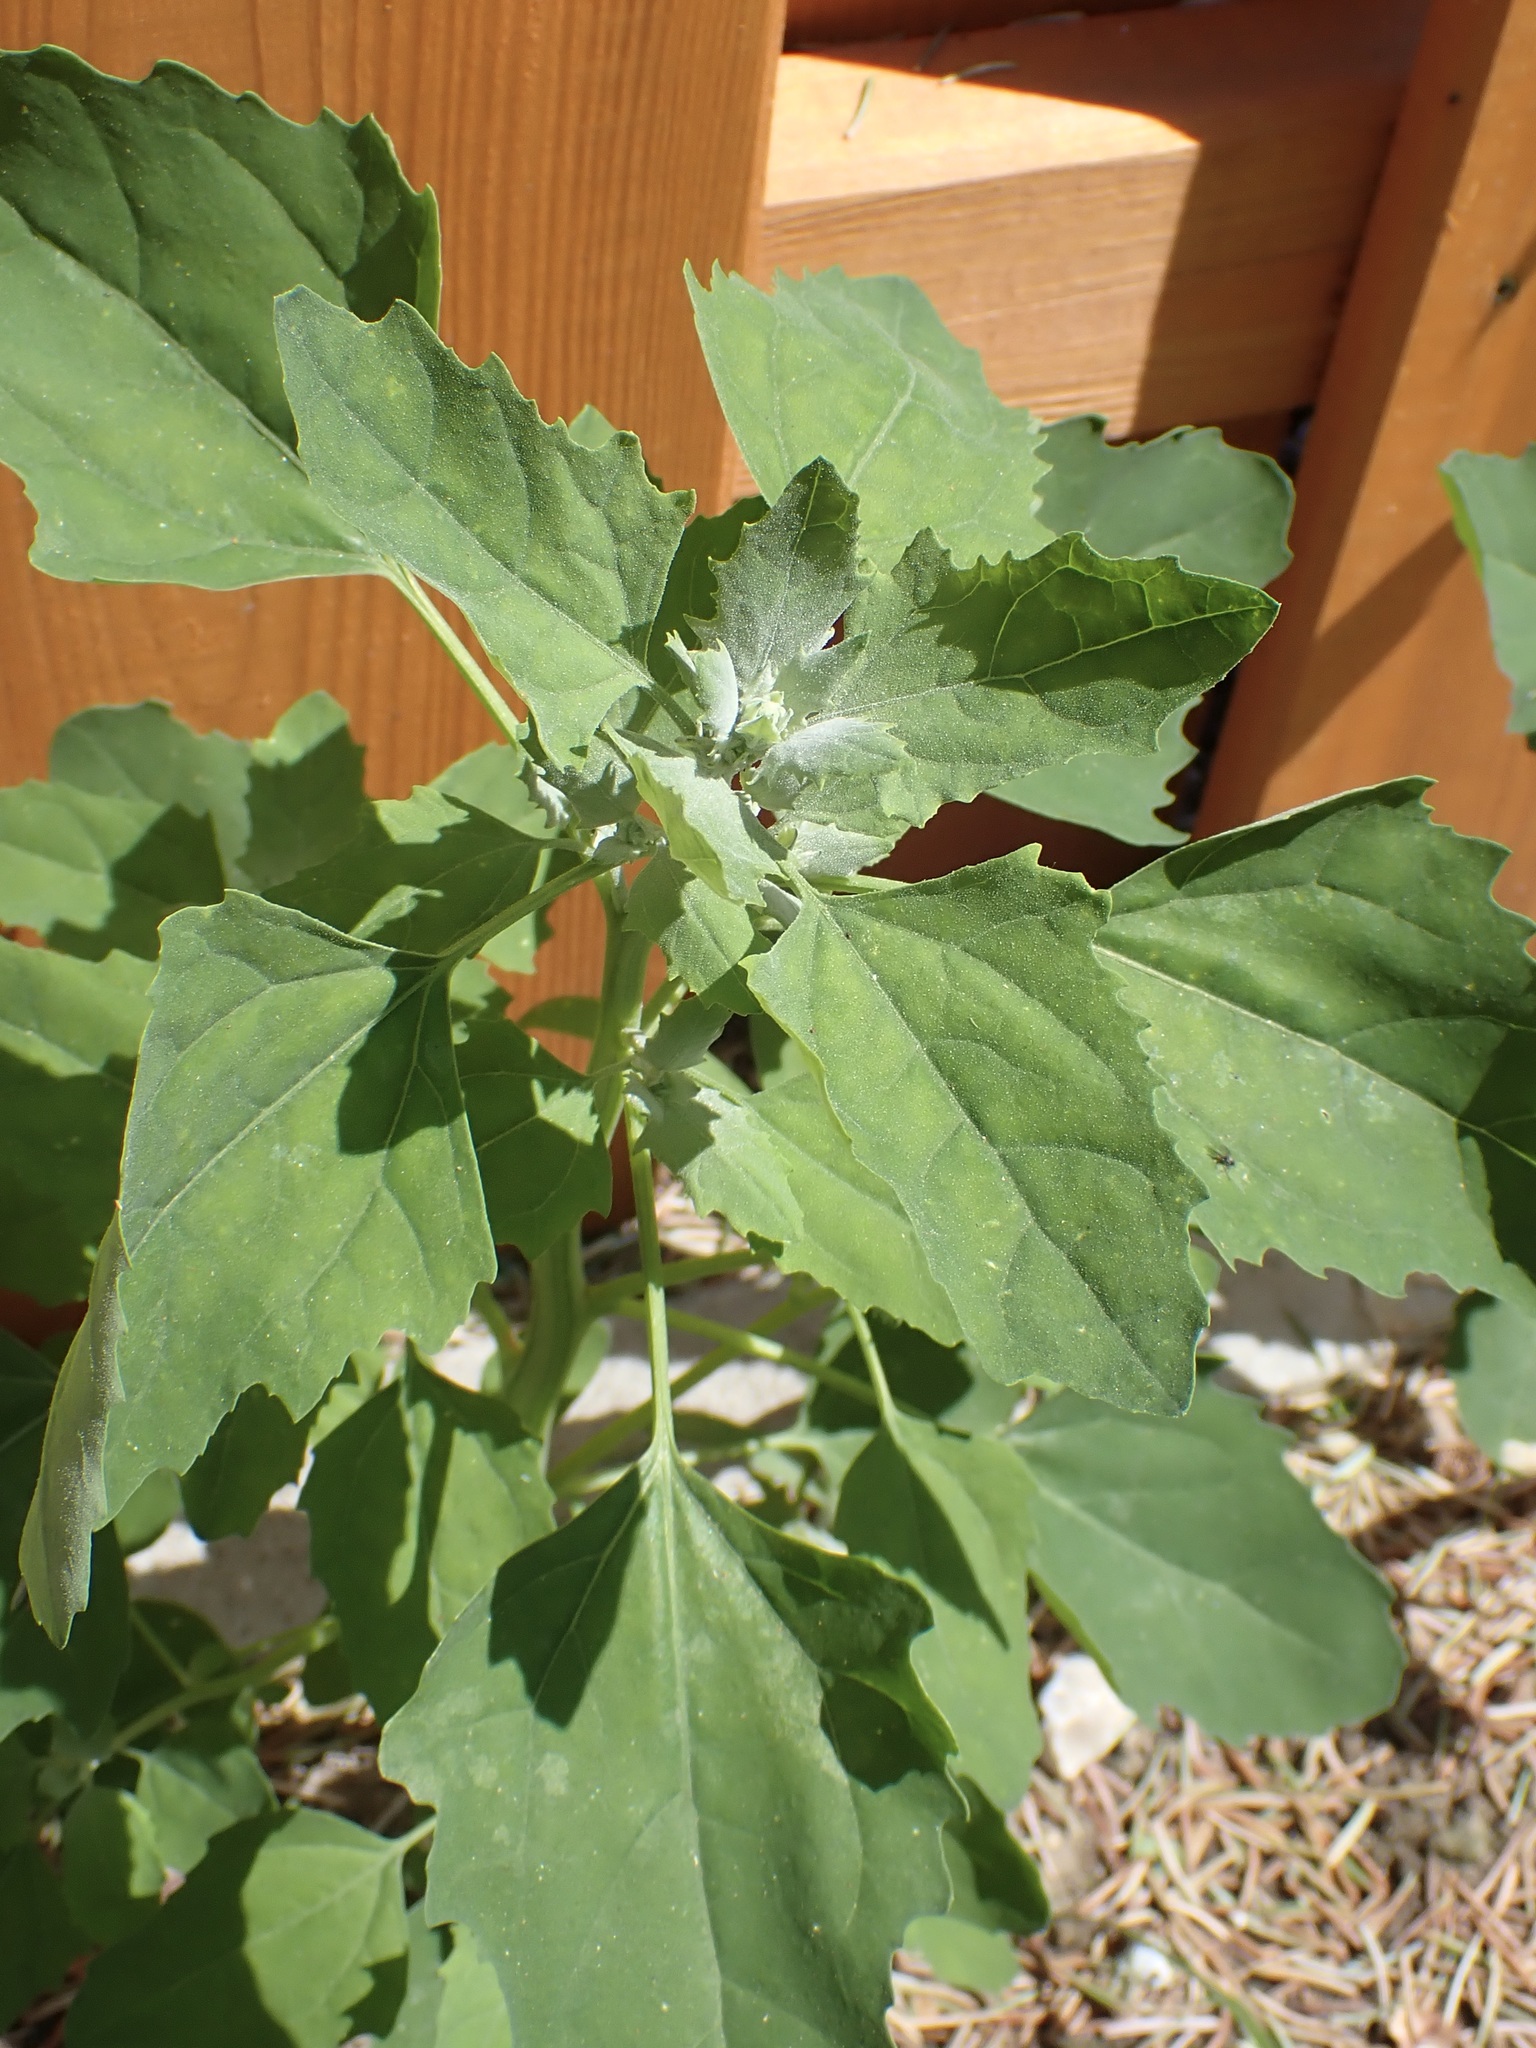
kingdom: Plantae
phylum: Tracheophyta
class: Magnoliopsida
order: Caryophyllales
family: Amaranthaceae
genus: Chenopodium
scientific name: Chenopodium album
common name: Fat-hen
